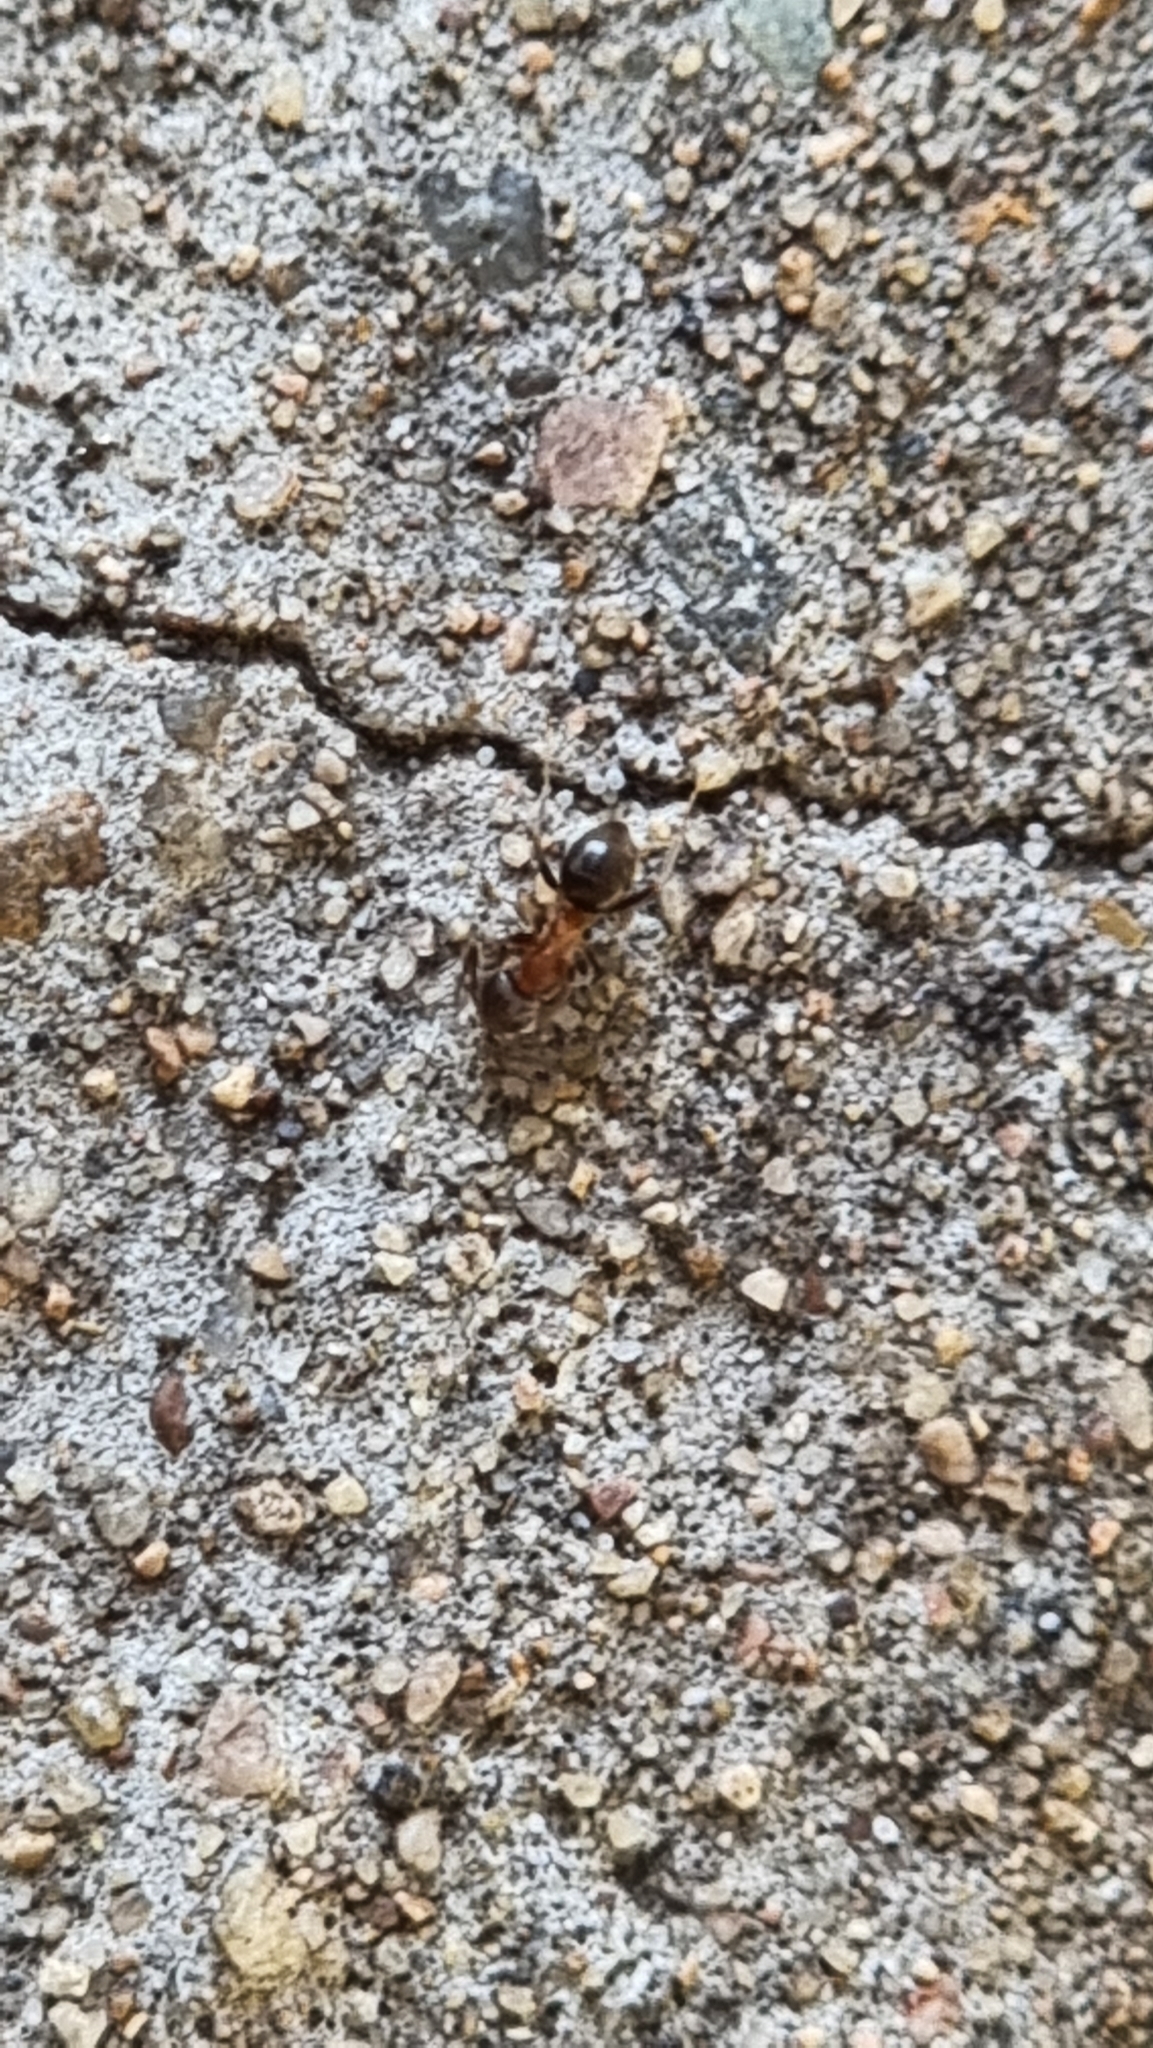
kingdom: Animalia
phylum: Arthropoda
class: Insecta
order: Hymenoptera
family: Formicidae
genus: Lasius
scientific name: Lasius emarginatus
